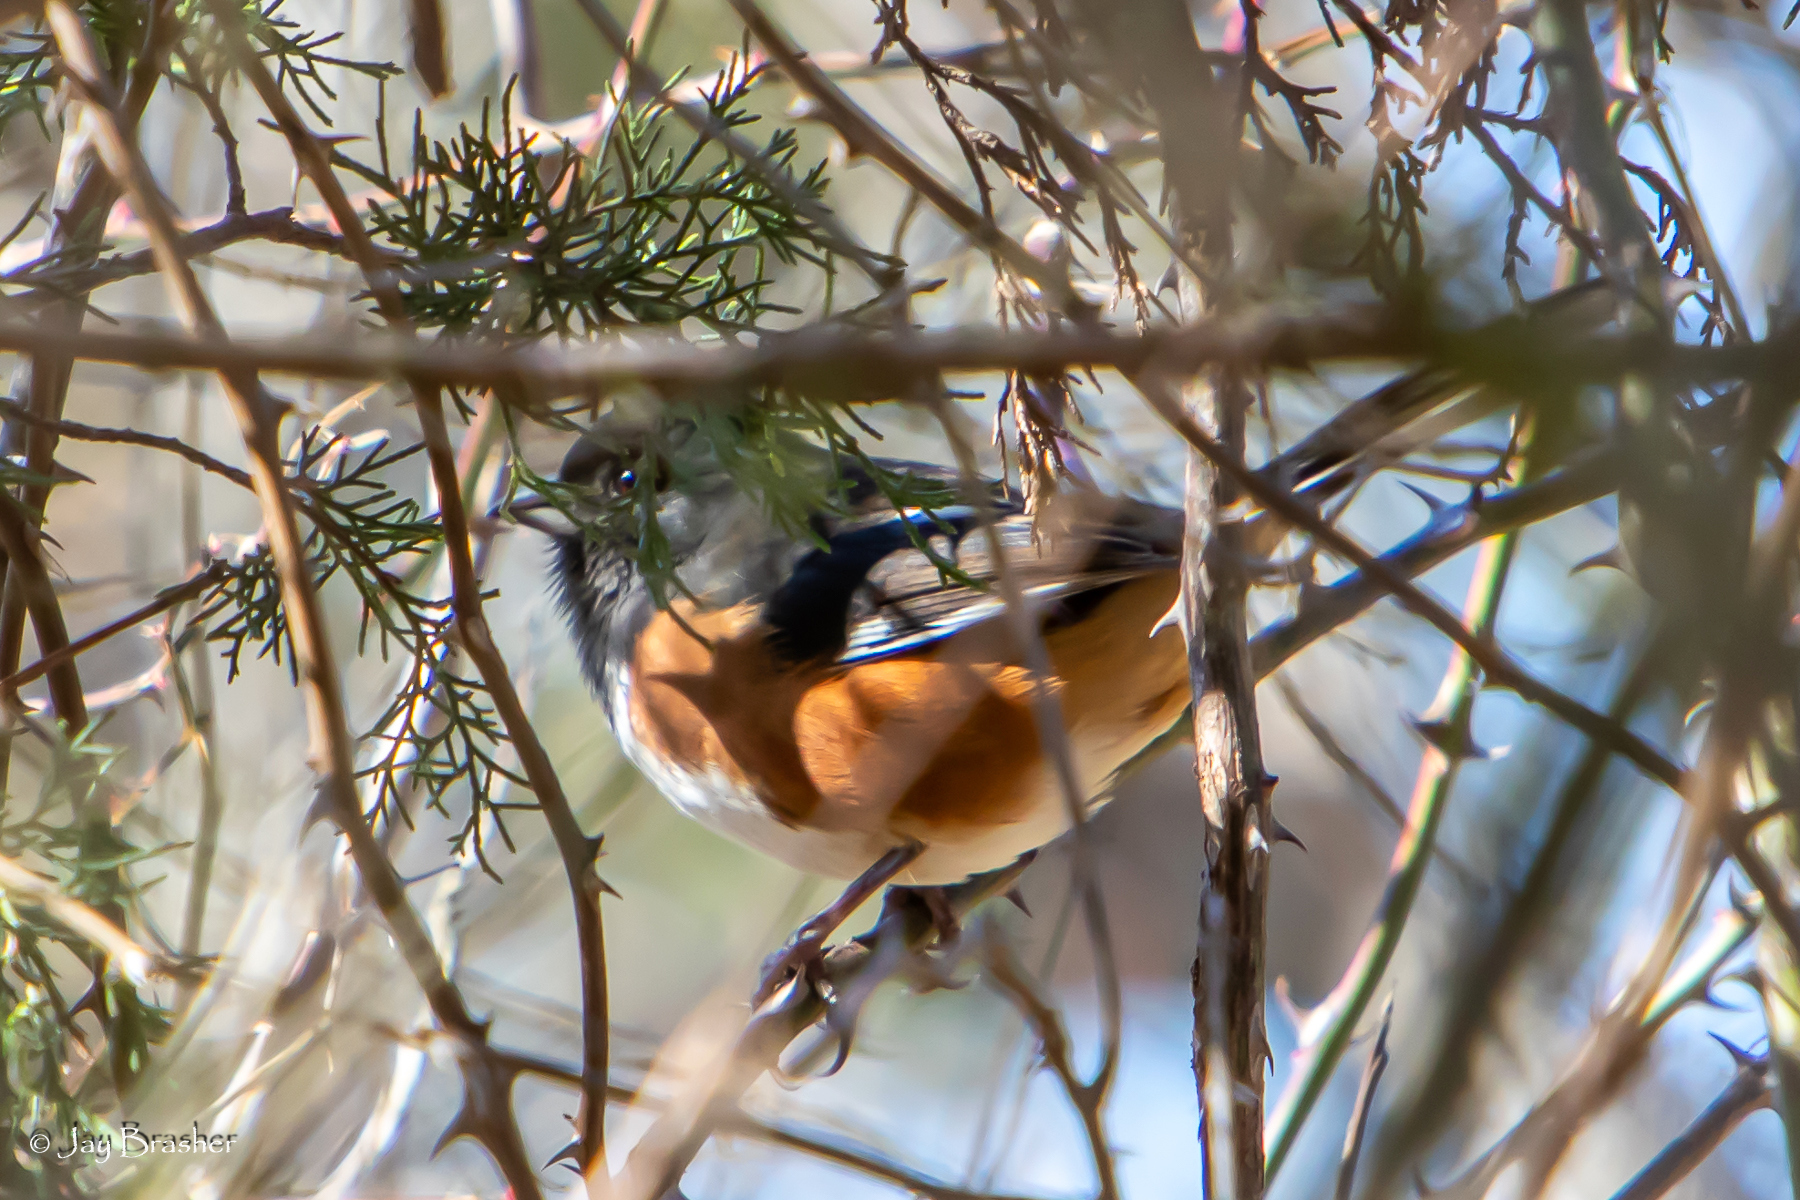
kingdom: Animalia
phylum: Chordata
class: Aves
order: Passeriformes
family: Passerellidae
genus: Pipilo
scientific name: Pipilo erythrophthalmus
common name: Eastern towhee
